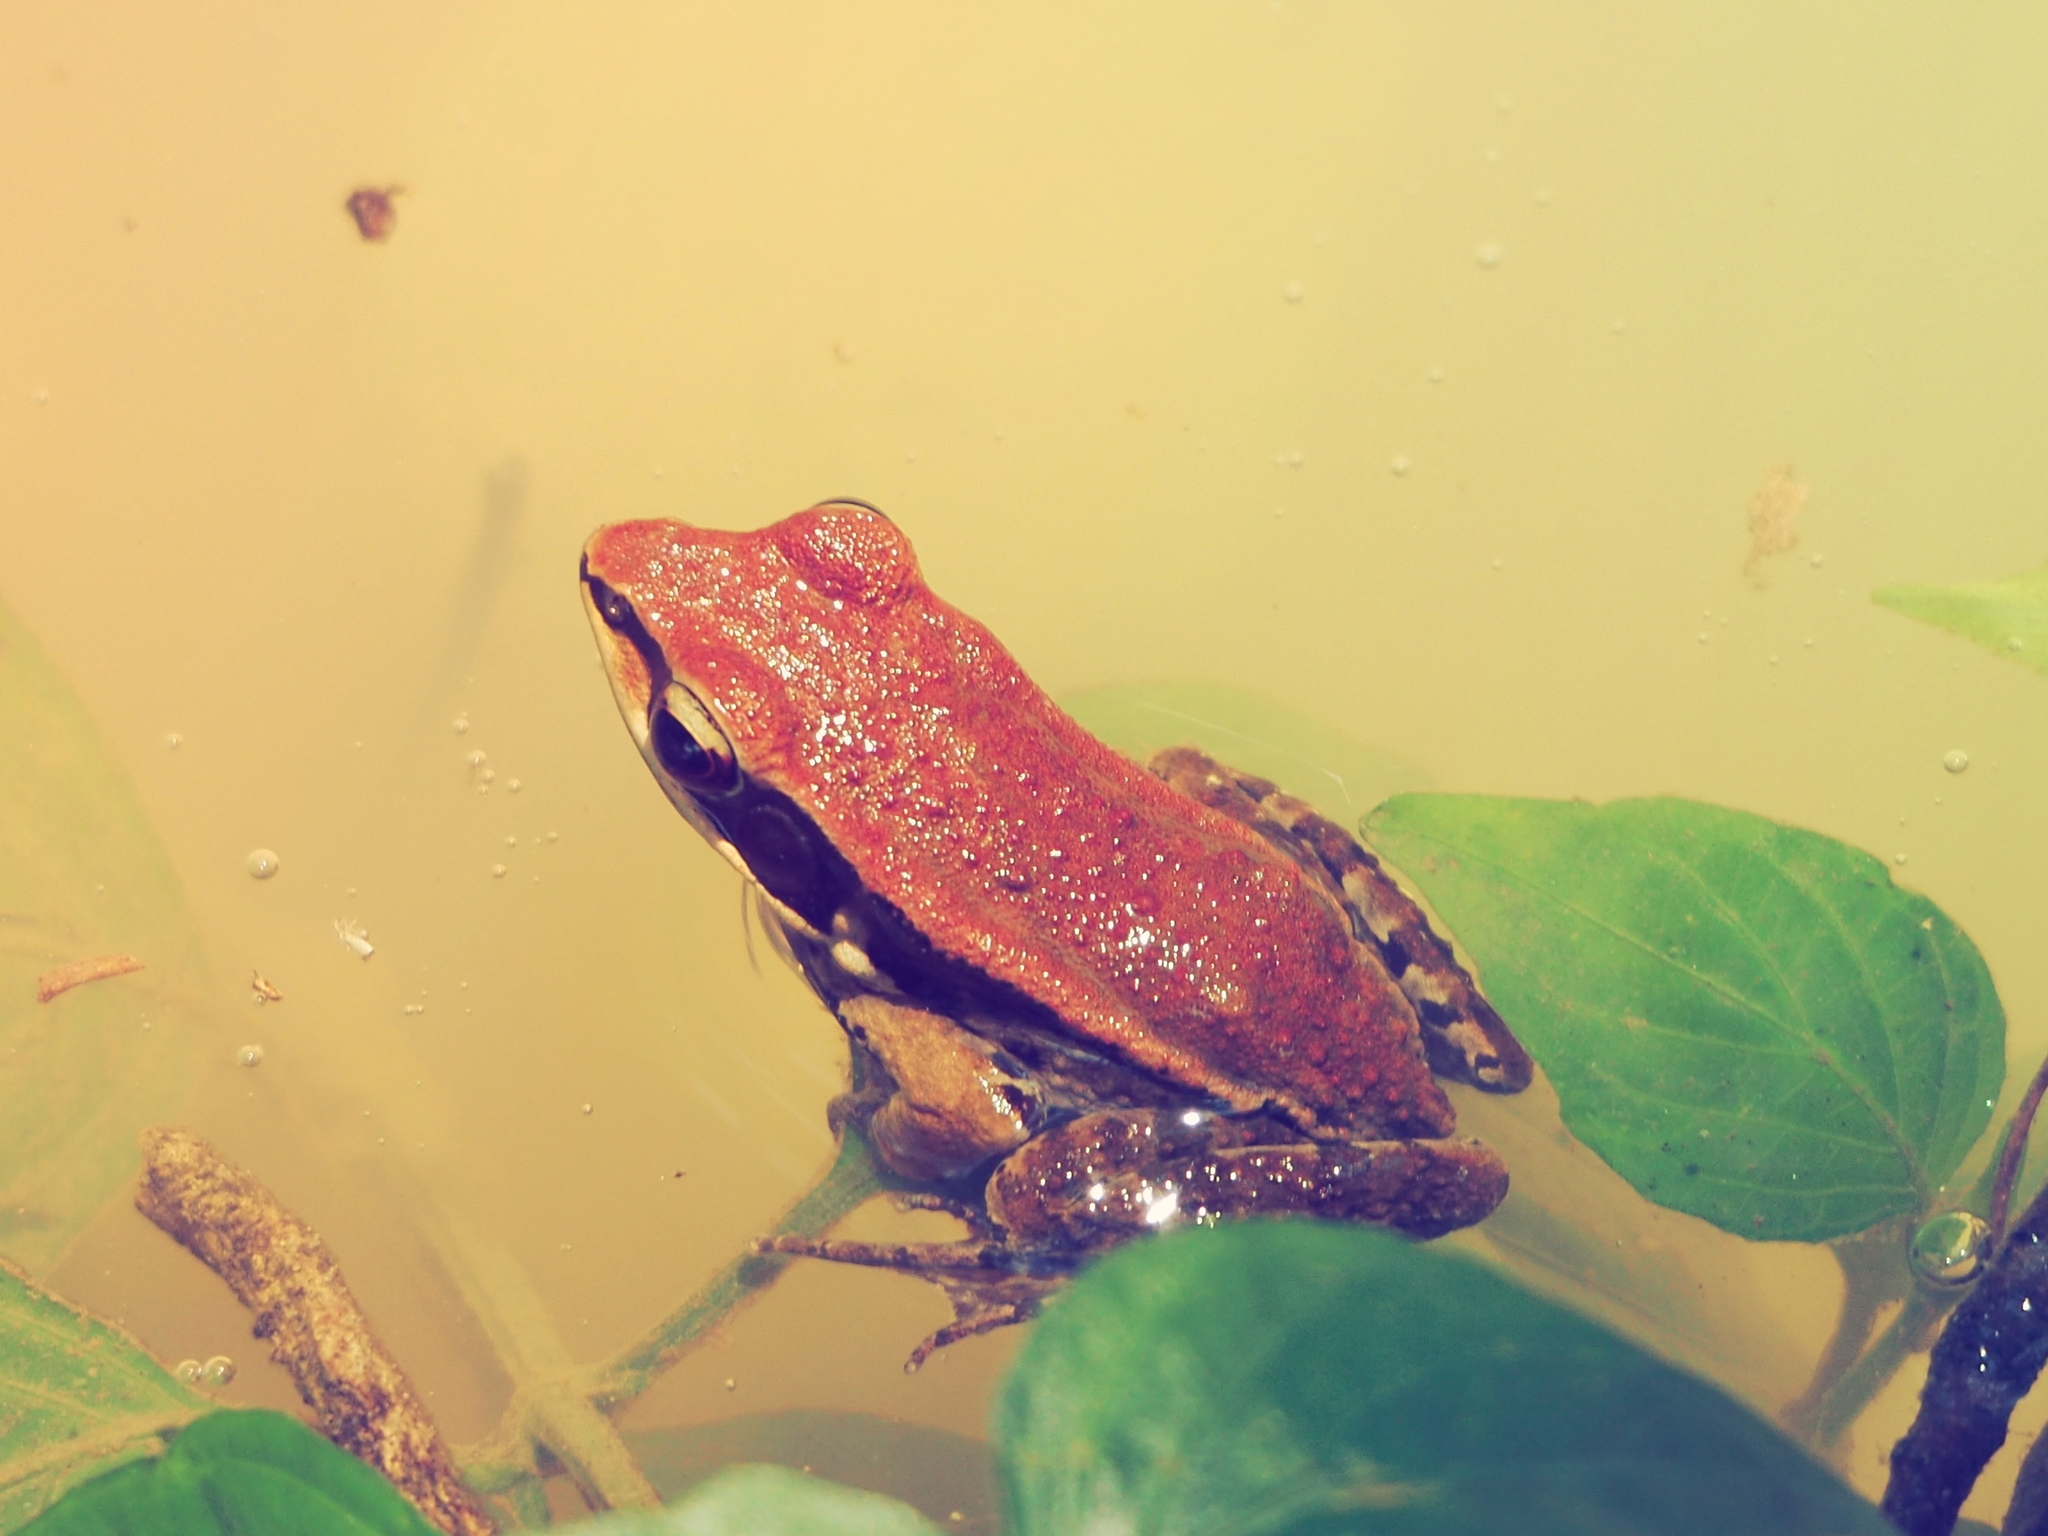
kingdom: Animalia
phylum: Chordata
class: Amphibia
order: Anura
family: Ranidae
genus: Hylarana
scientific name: Hylarana latouchii
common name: Broad-folded frog
